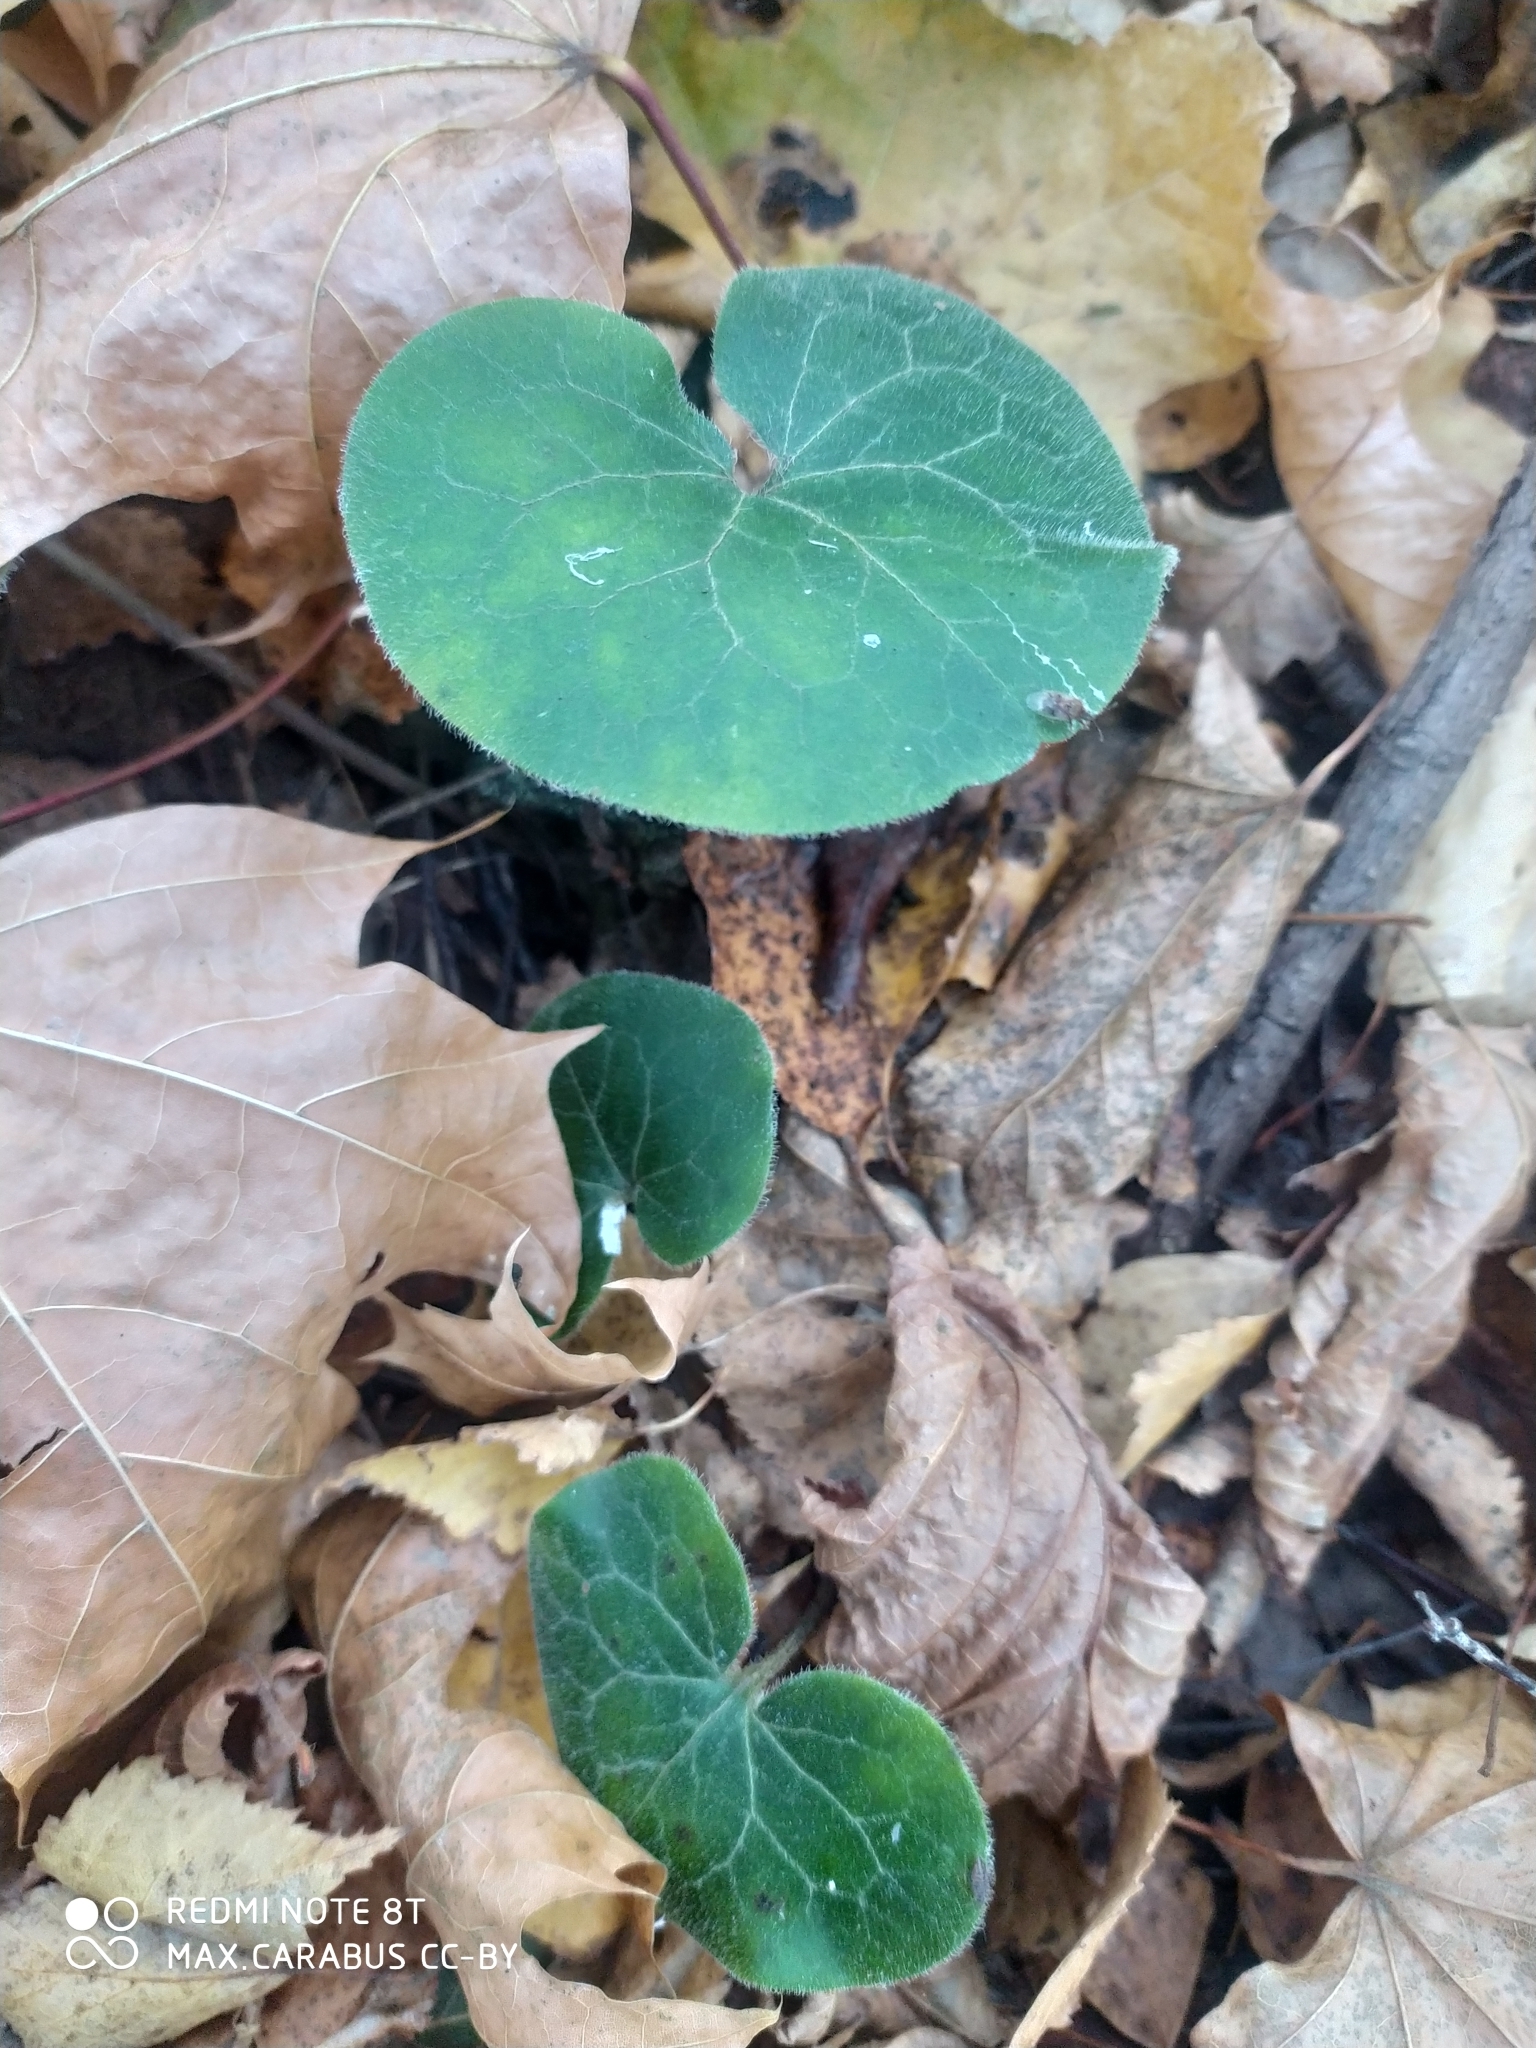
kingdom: Plantae
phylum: Tracheophyta
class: Magnoliopsida
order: Piperales
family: Aristolochiaceae
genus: Asarum
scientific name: Asarum europaeum
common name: Asarabacca
